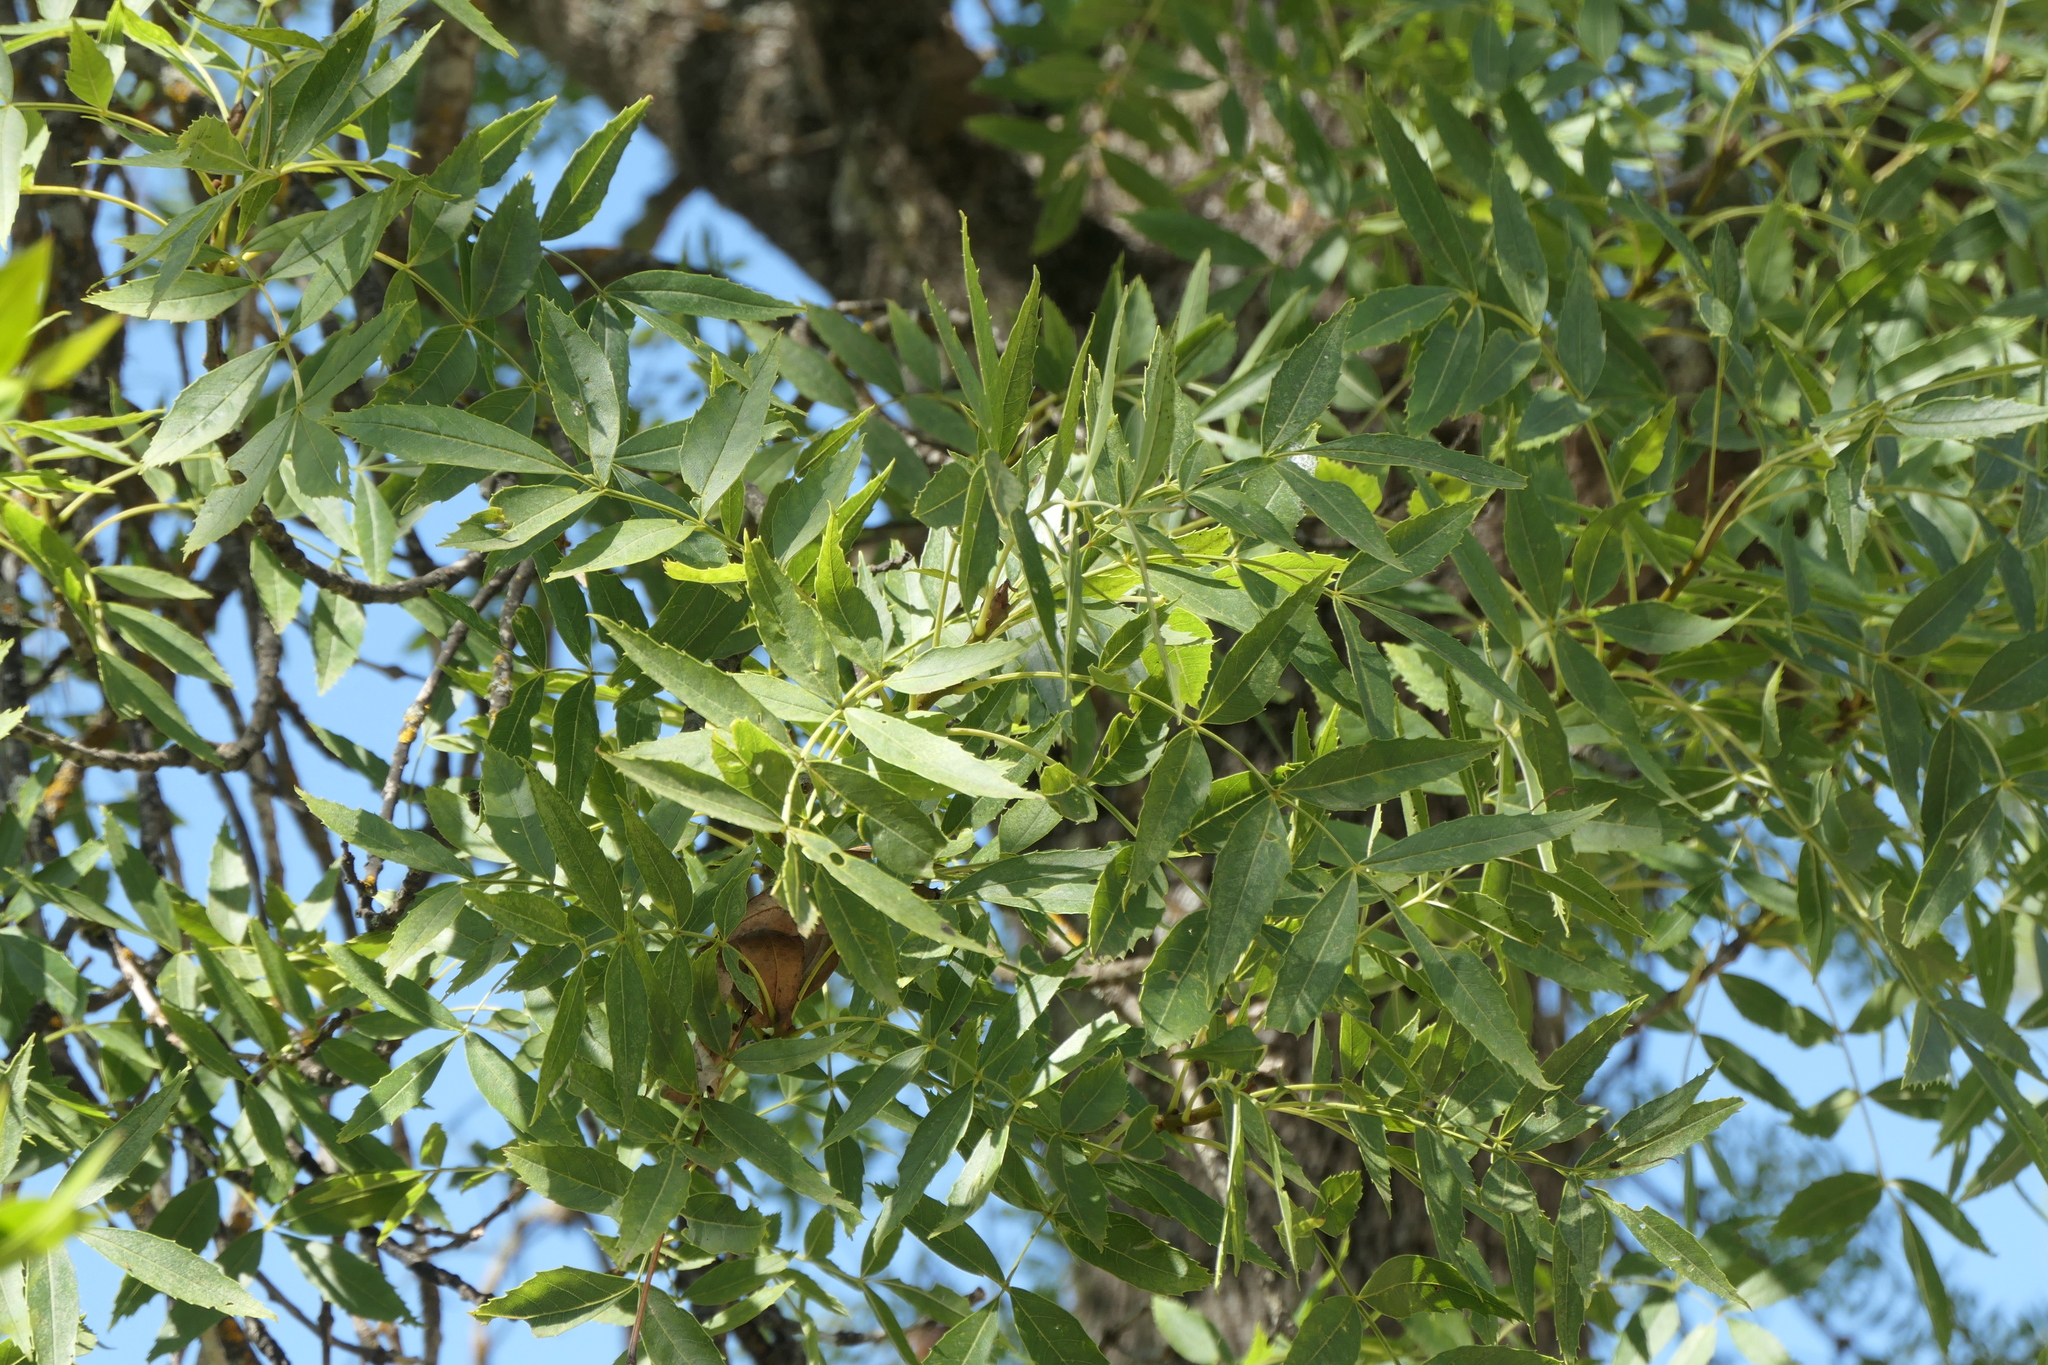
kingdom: Plantae
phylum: Tracheophyta
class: Magnoliopsida
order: Lamiales
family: Oleaceae
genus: Fraxinus
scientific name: Fraxinus angustifolia
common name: Narrow-leafed ash
